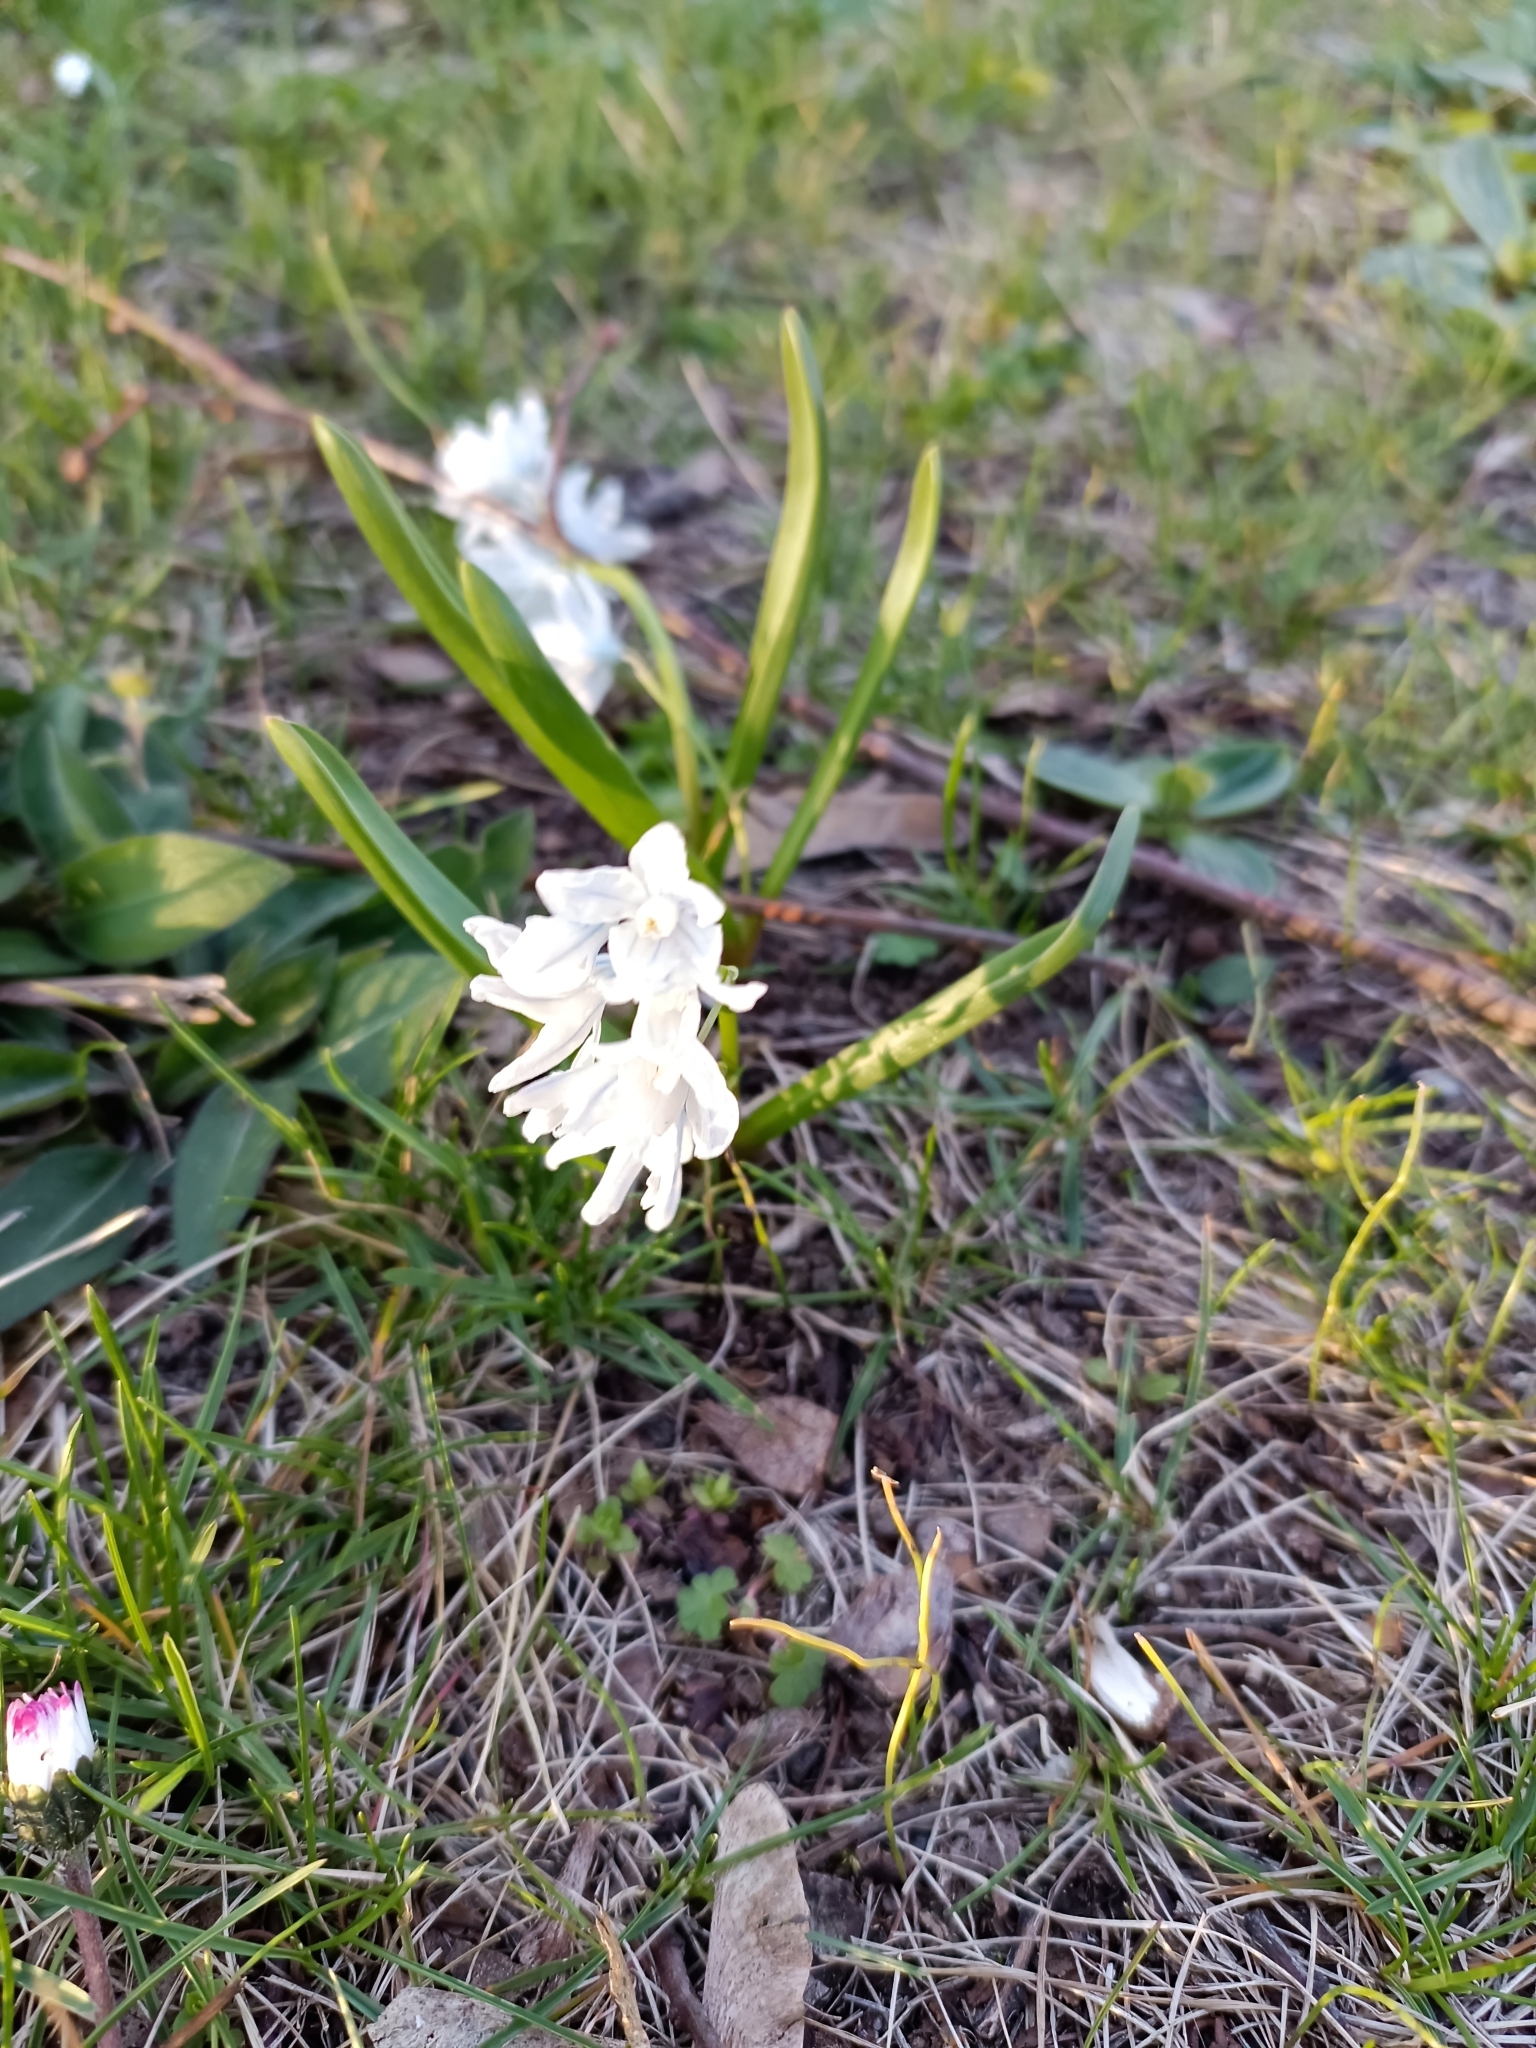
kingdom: Plantae
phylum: Tracheophyta
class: Liliopsida
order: Asparagales
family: Asparagaceae
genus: Puschkinia
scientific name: Puschkinia scilloides
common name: Striped squill
